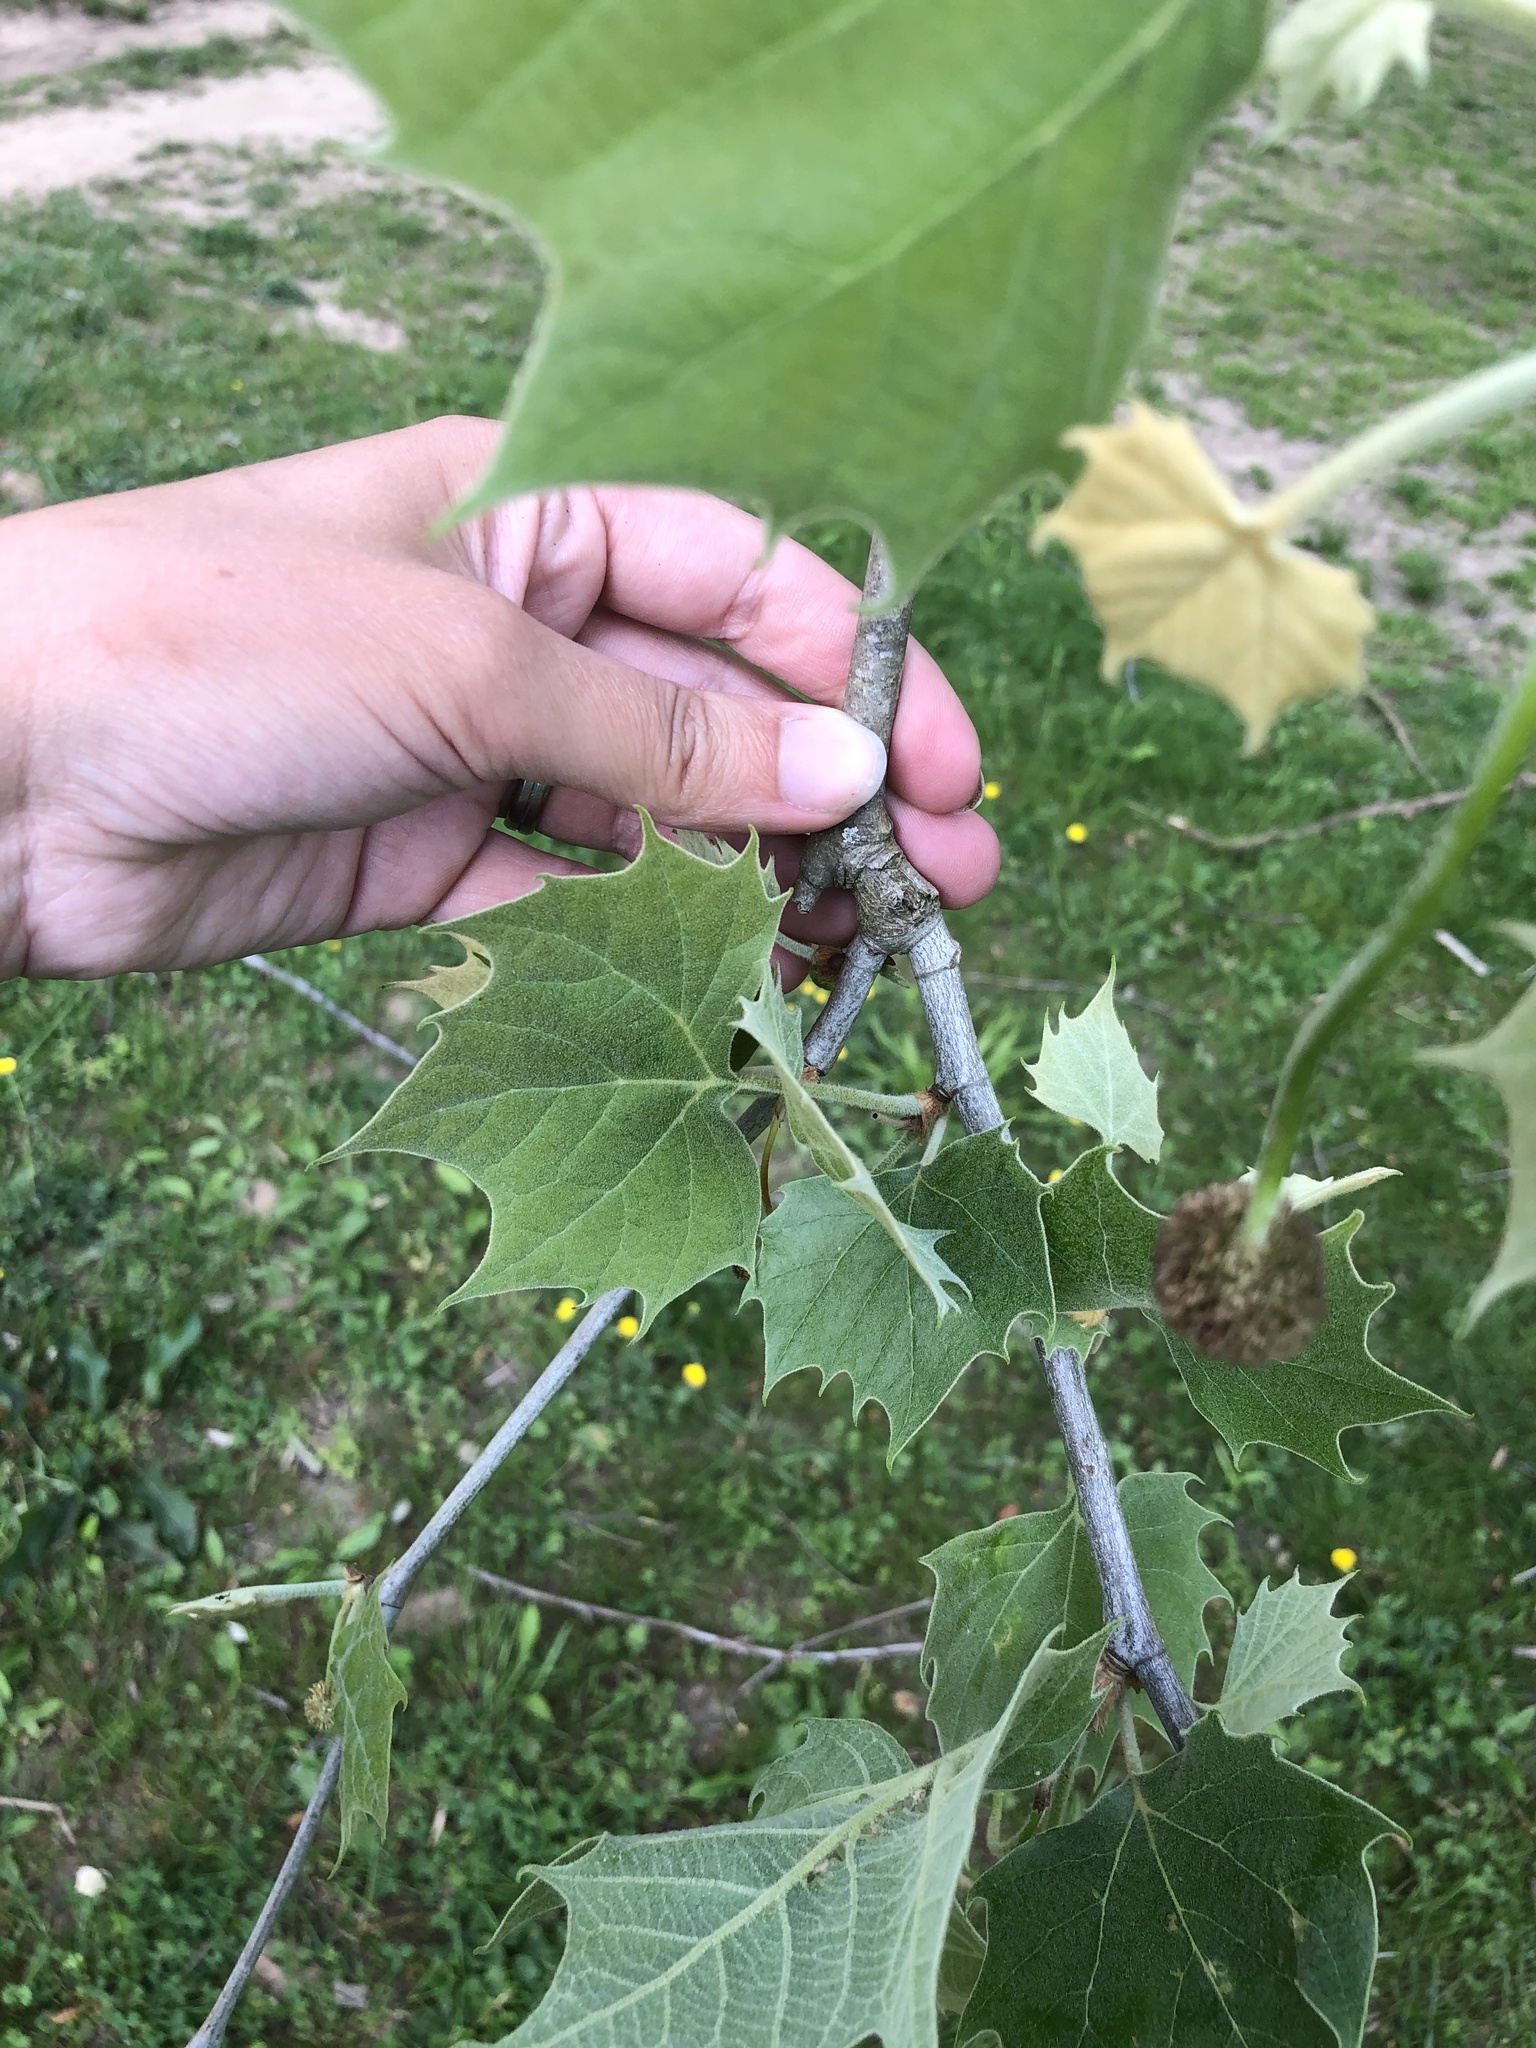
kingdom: Plantae
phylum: Tracheophyta
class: Magnoliopsida
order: Proteales
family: Platanaceae
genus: Platanus
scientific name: Platanus occidentalis
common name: American sycamore
